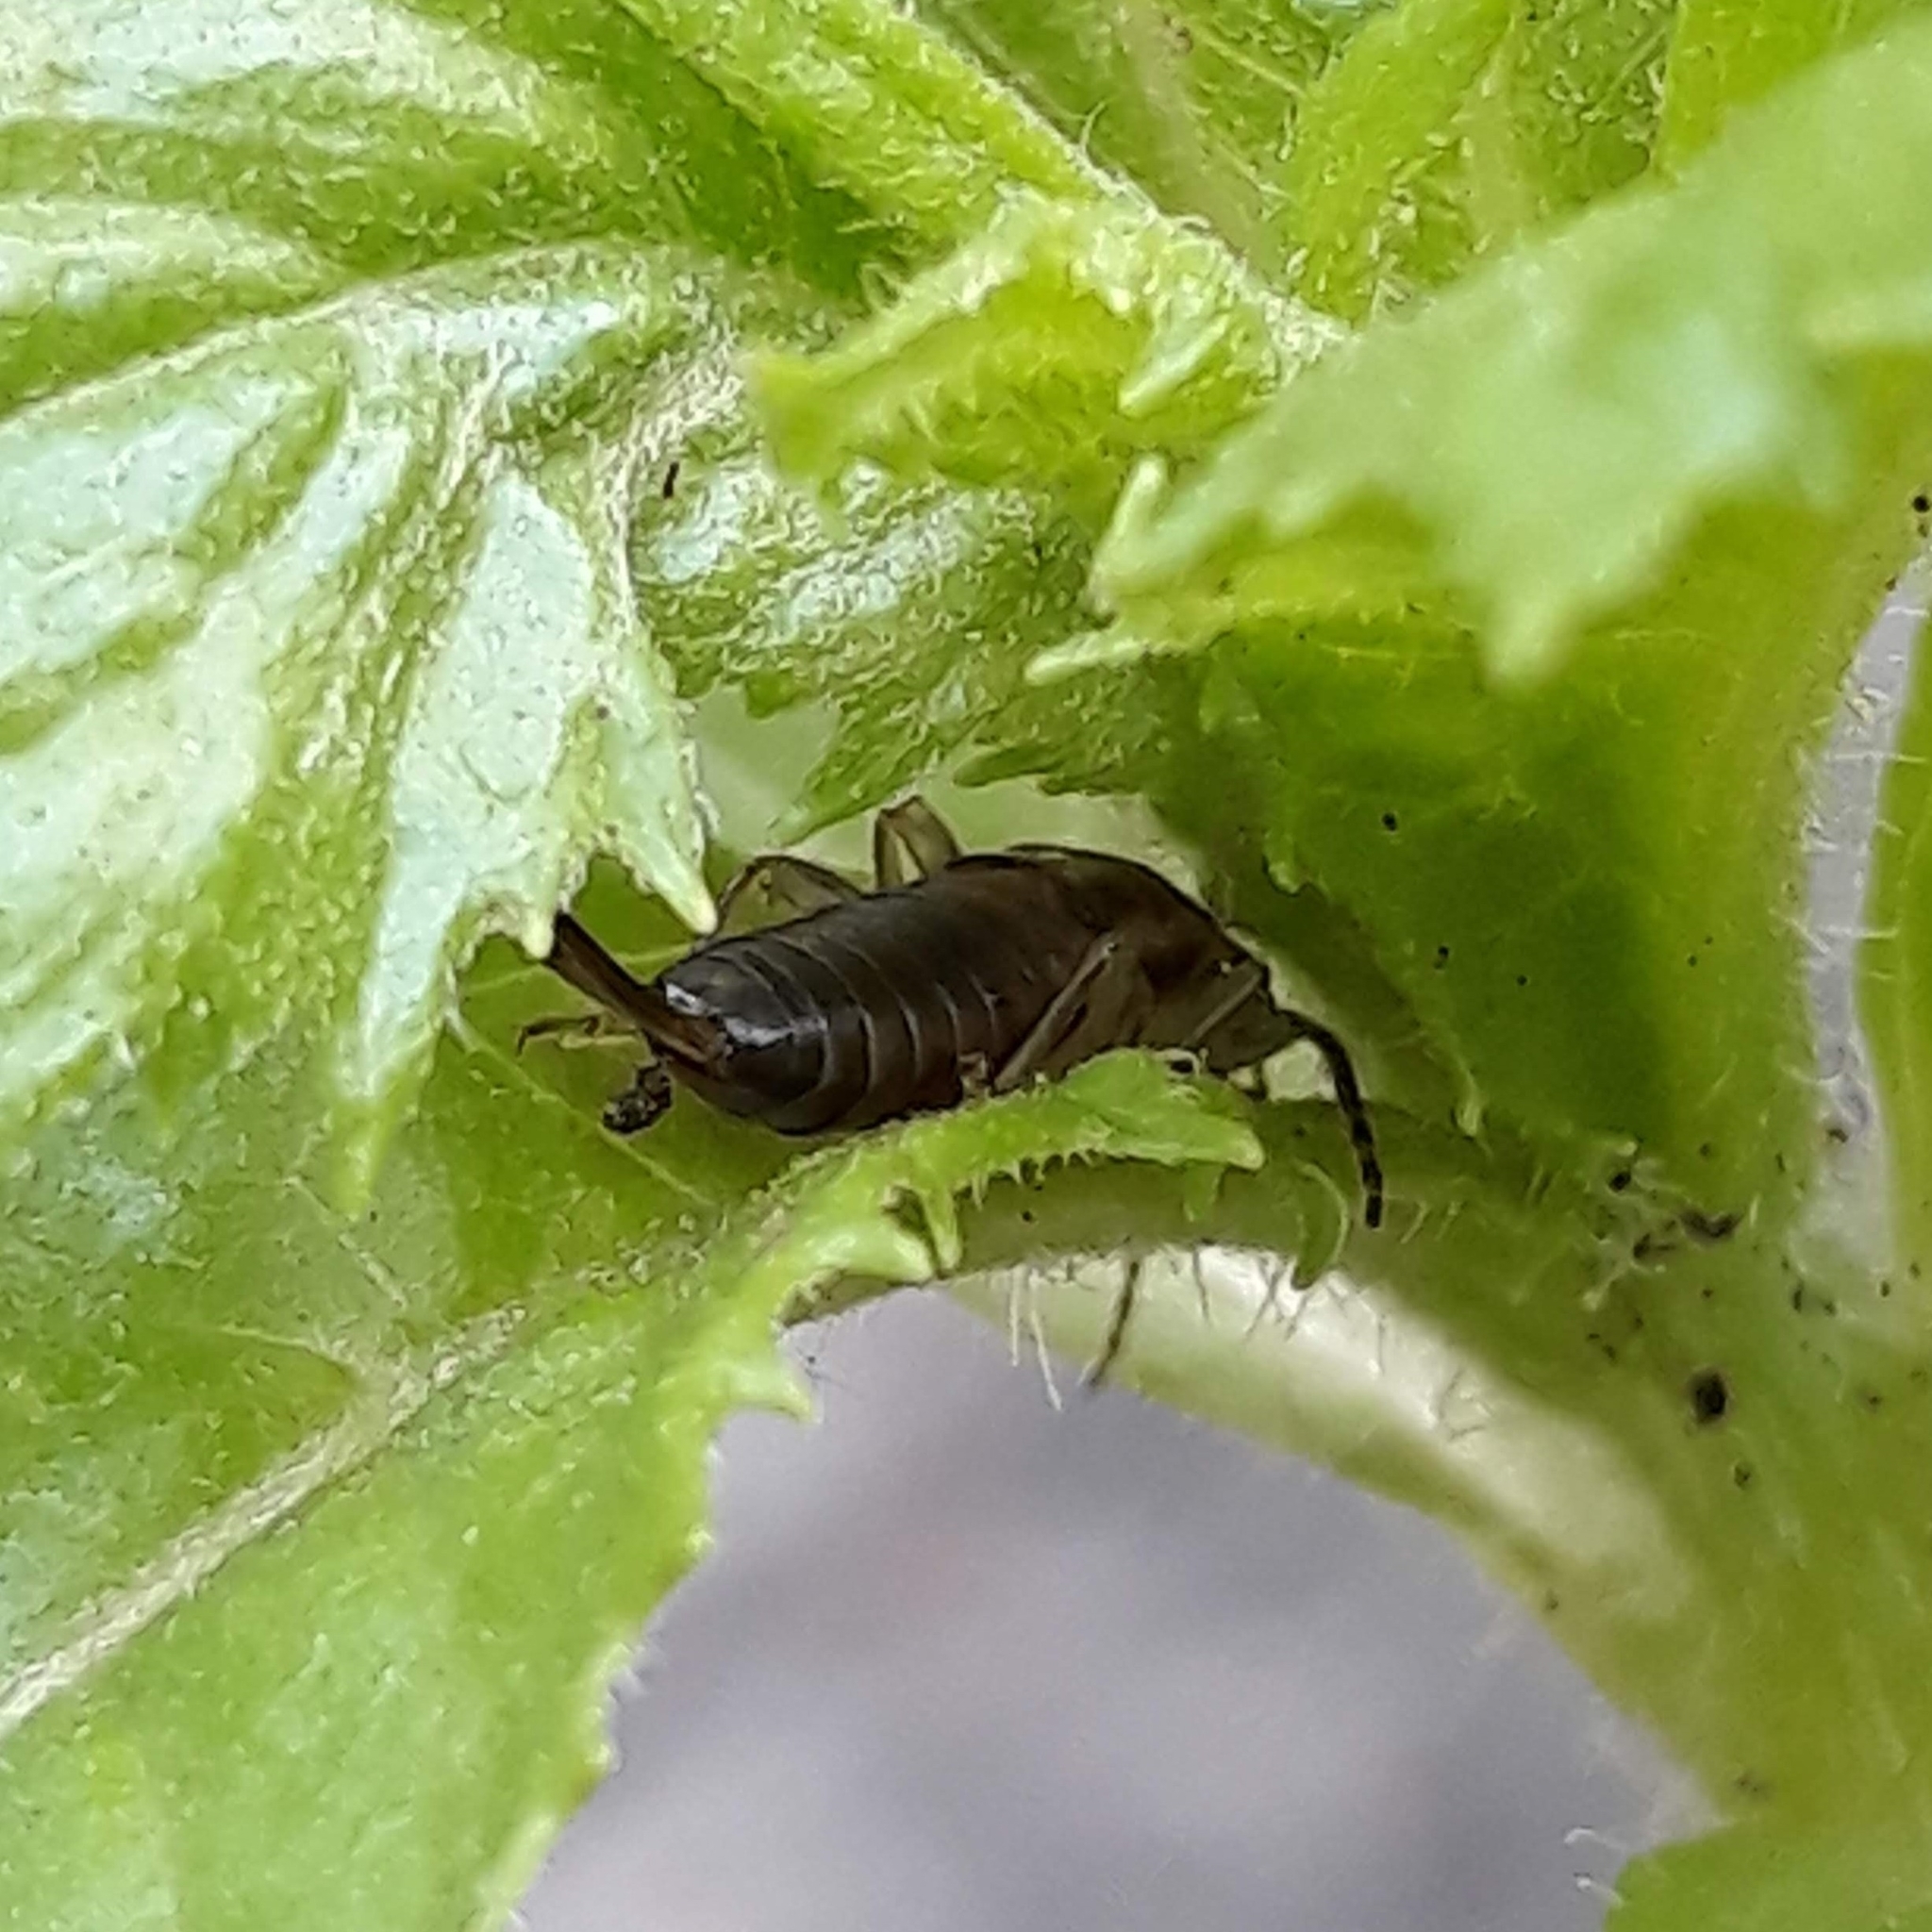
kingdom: Animalia
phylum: Arthropoda
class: Insecta
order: Dermaptera
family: Forficulidae
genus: Forficula
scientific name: Forficula
